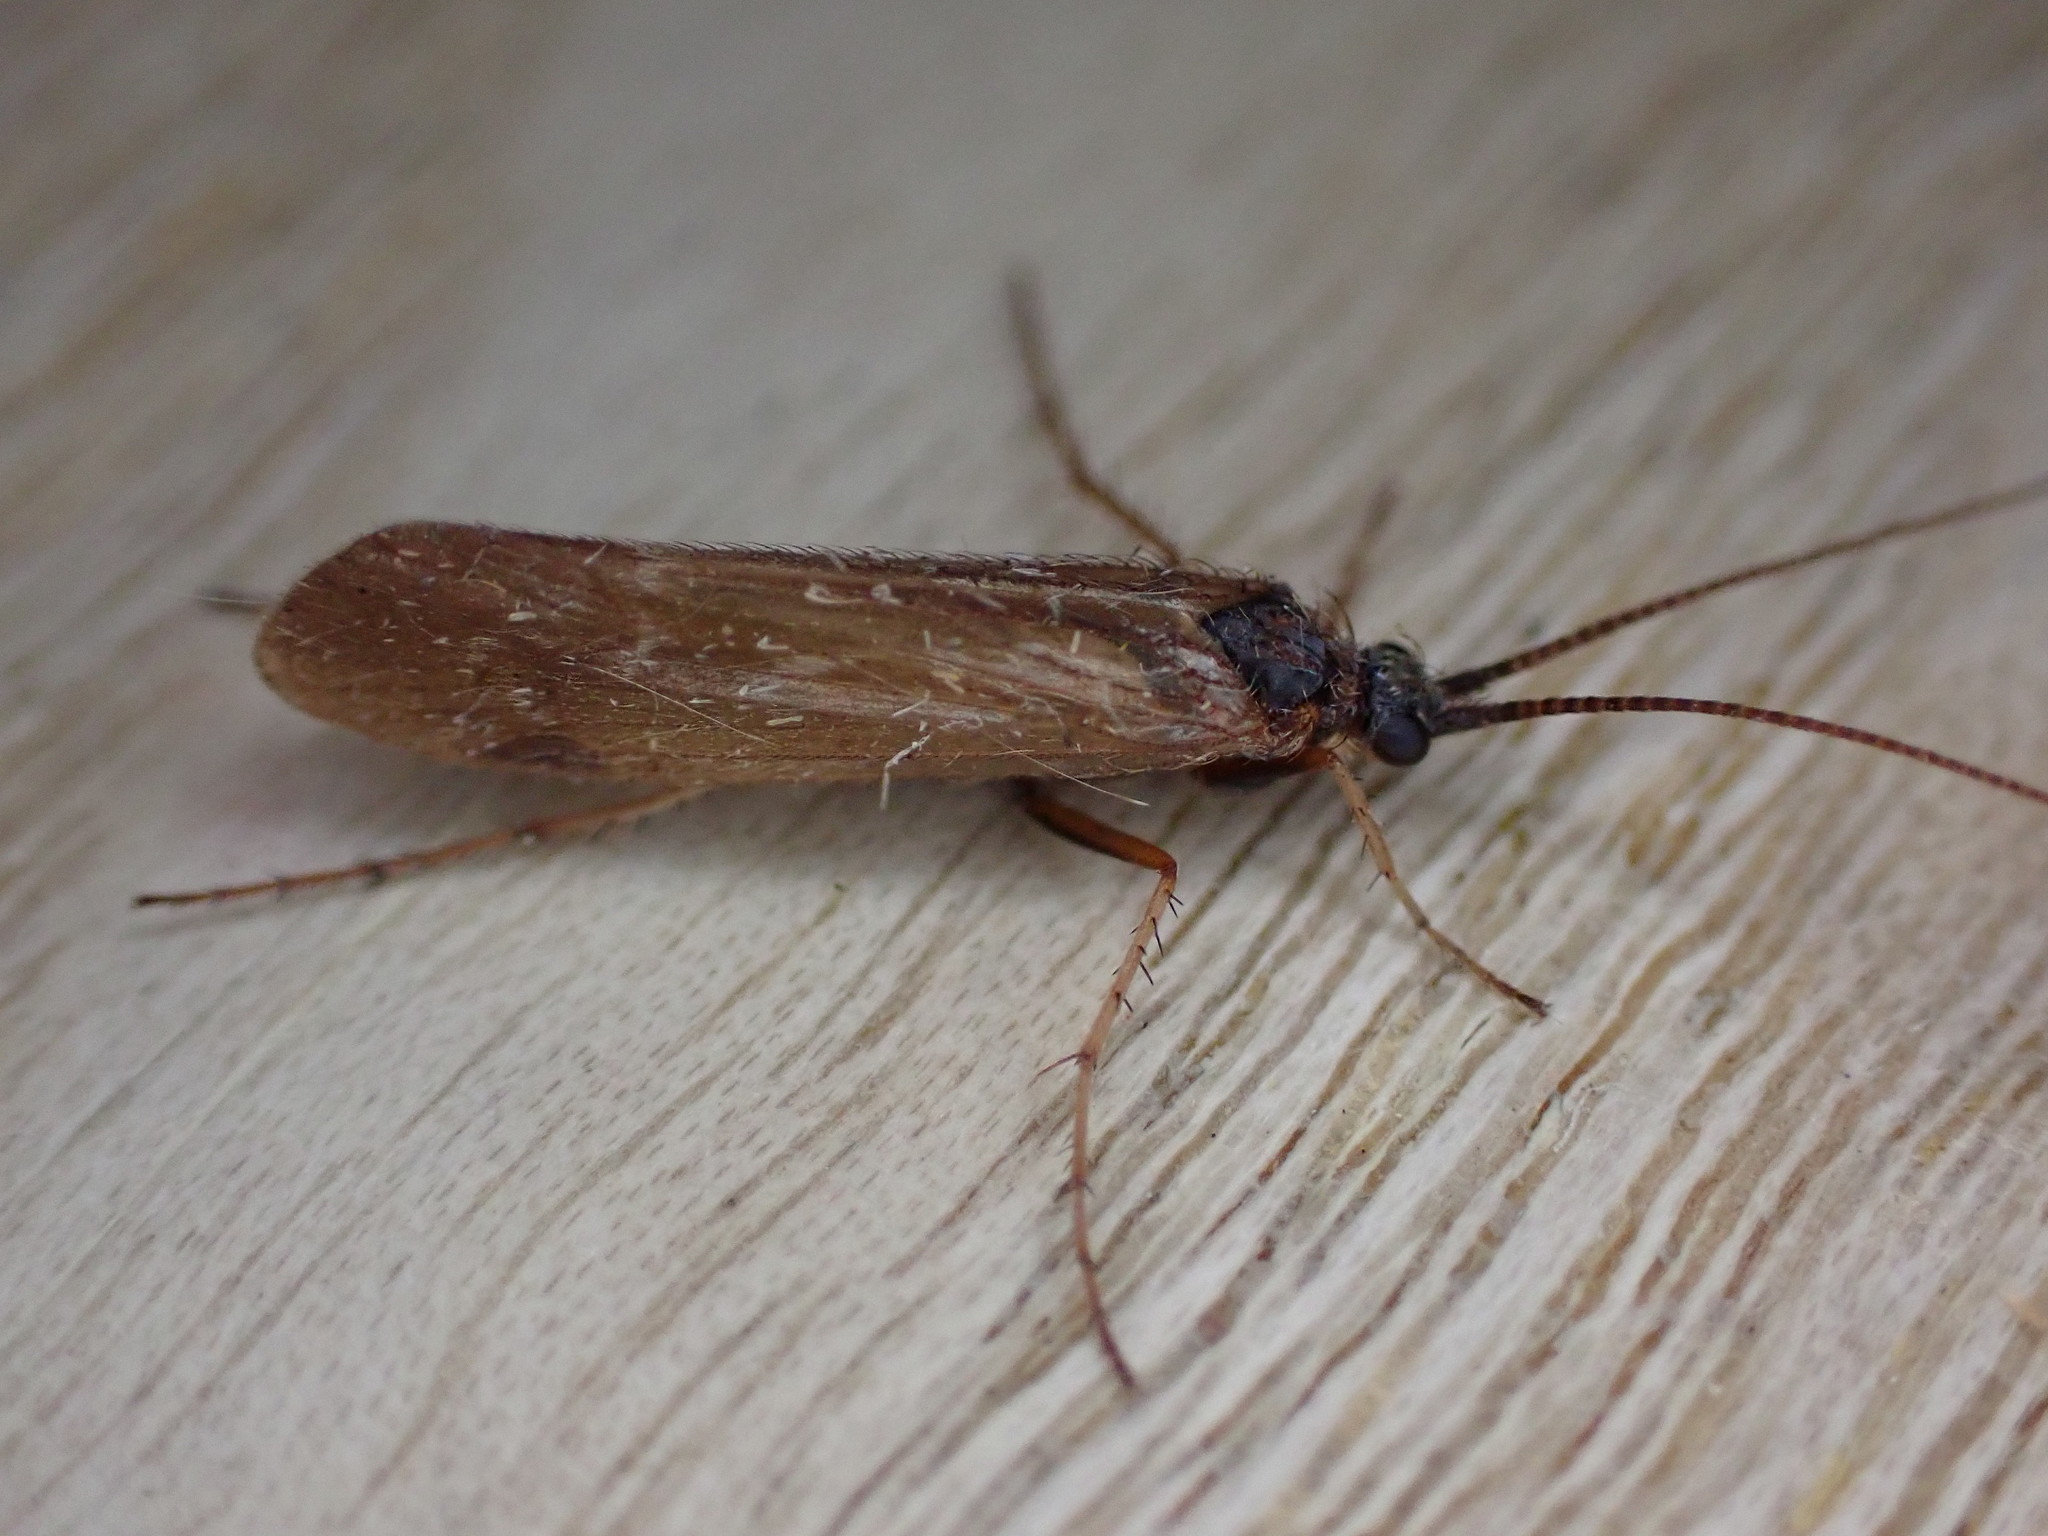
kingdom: Animalia
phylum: Arthropoda
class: Insecta
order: Trichoptera
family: Limnephilidae
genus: Limnephilus
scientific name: Limnephilus auricula
